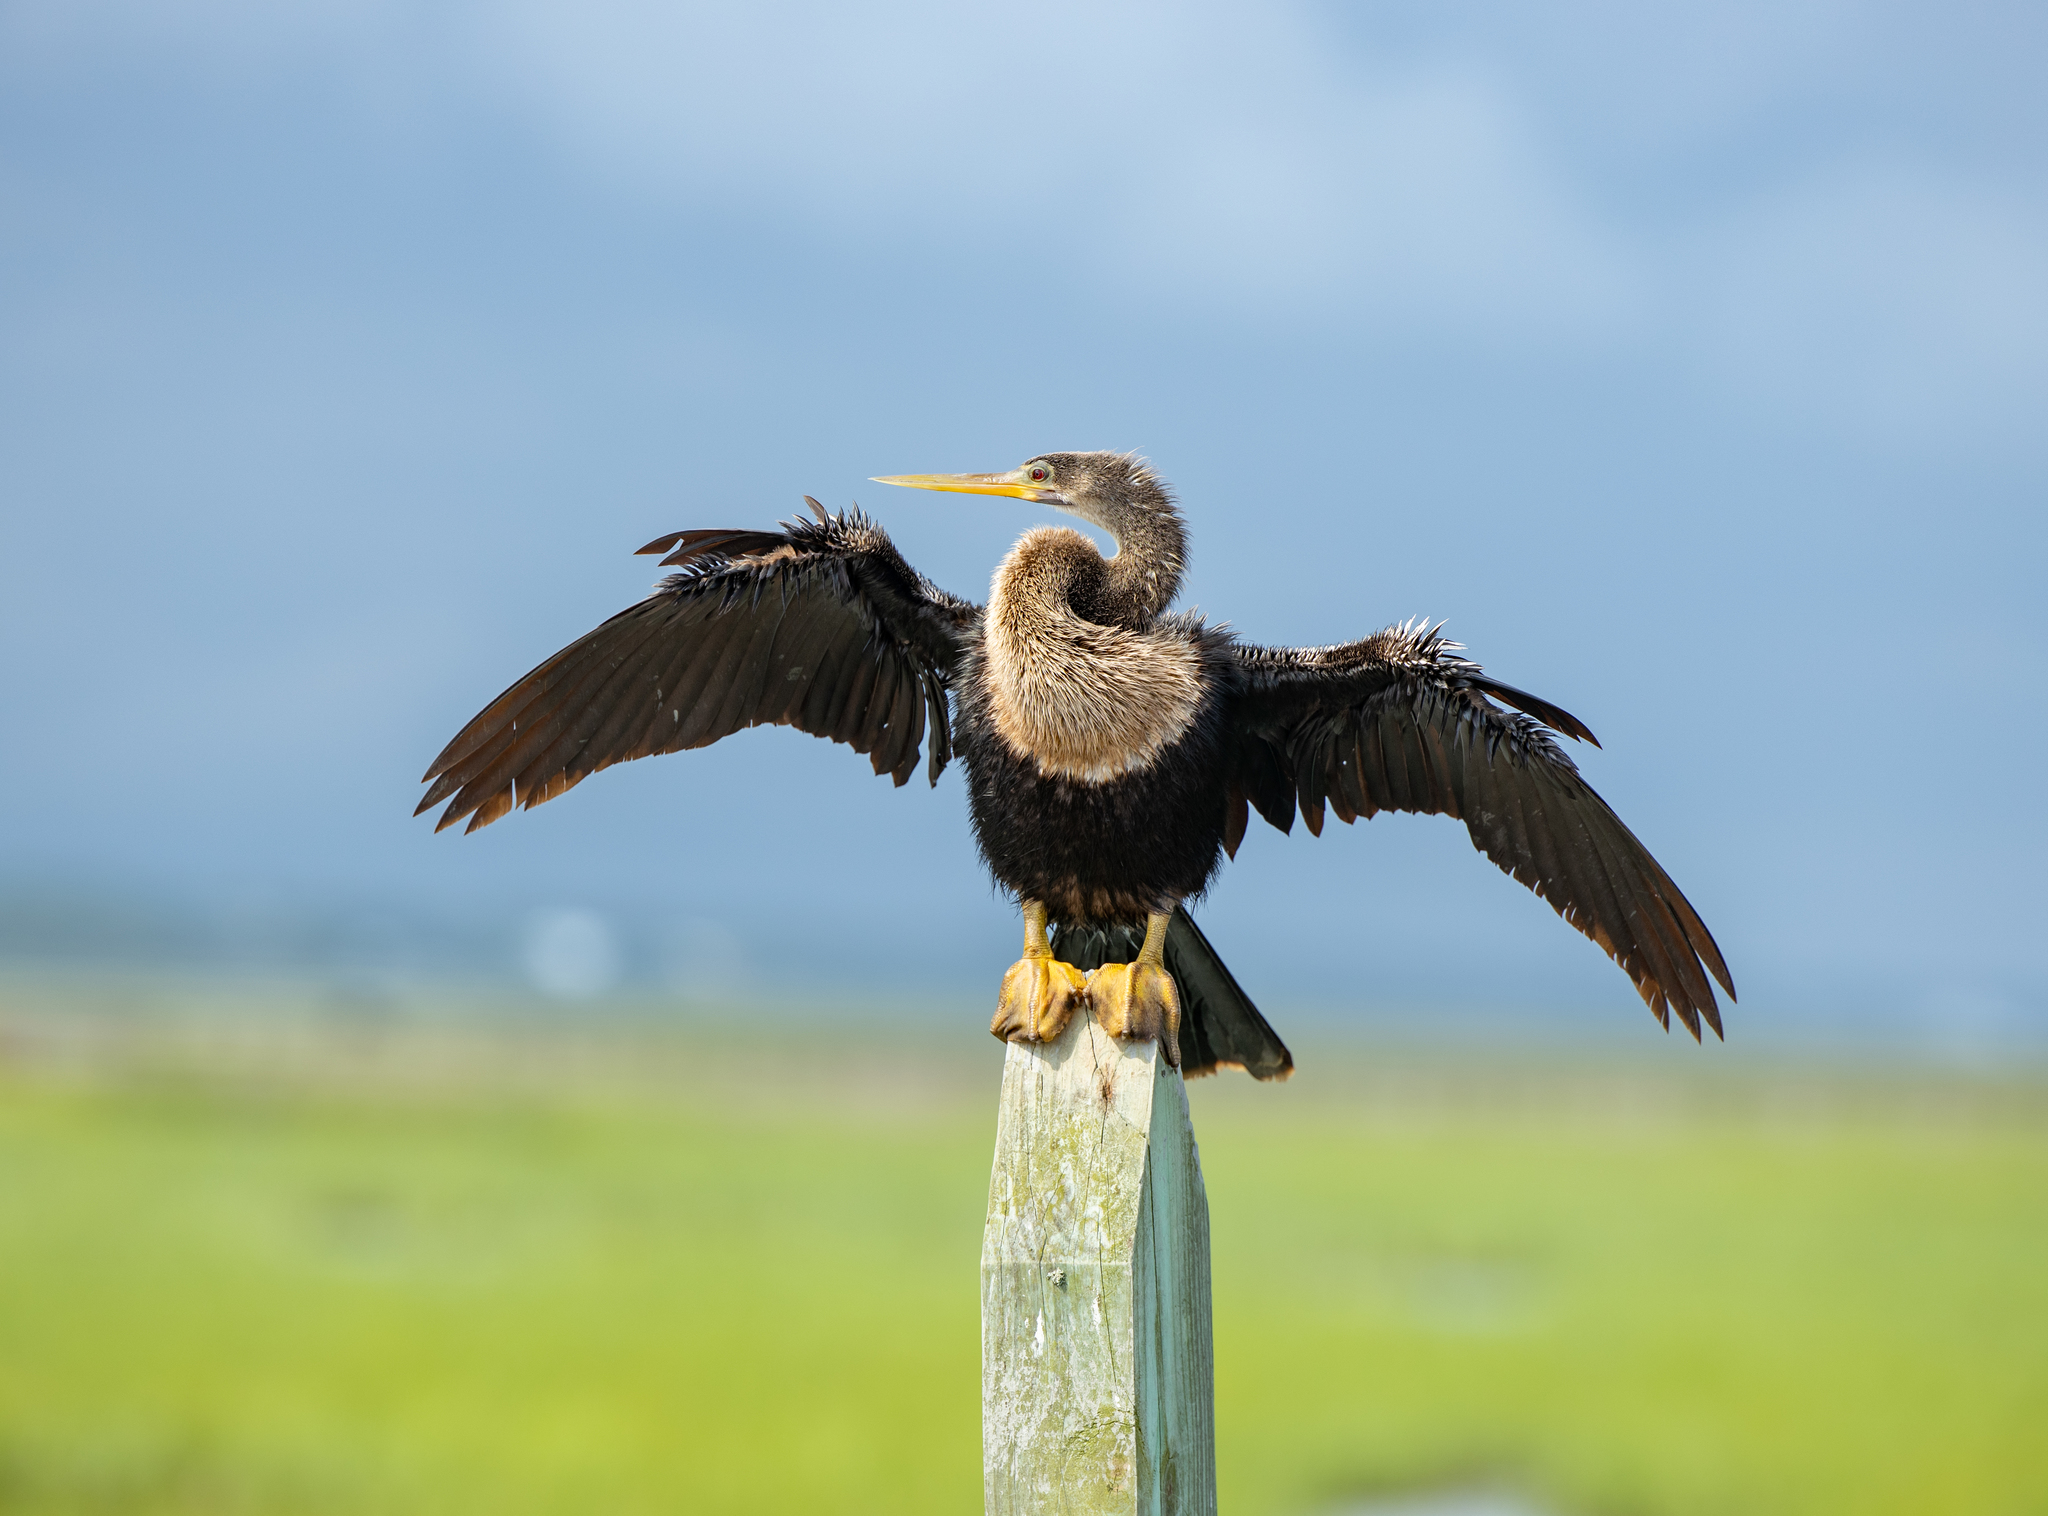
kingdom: Animalia
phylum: Chordata
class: Aves
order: Suliformes
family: Anhingidae
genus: Anhinga
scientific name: Anhinga anhinga
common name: Anhinga
